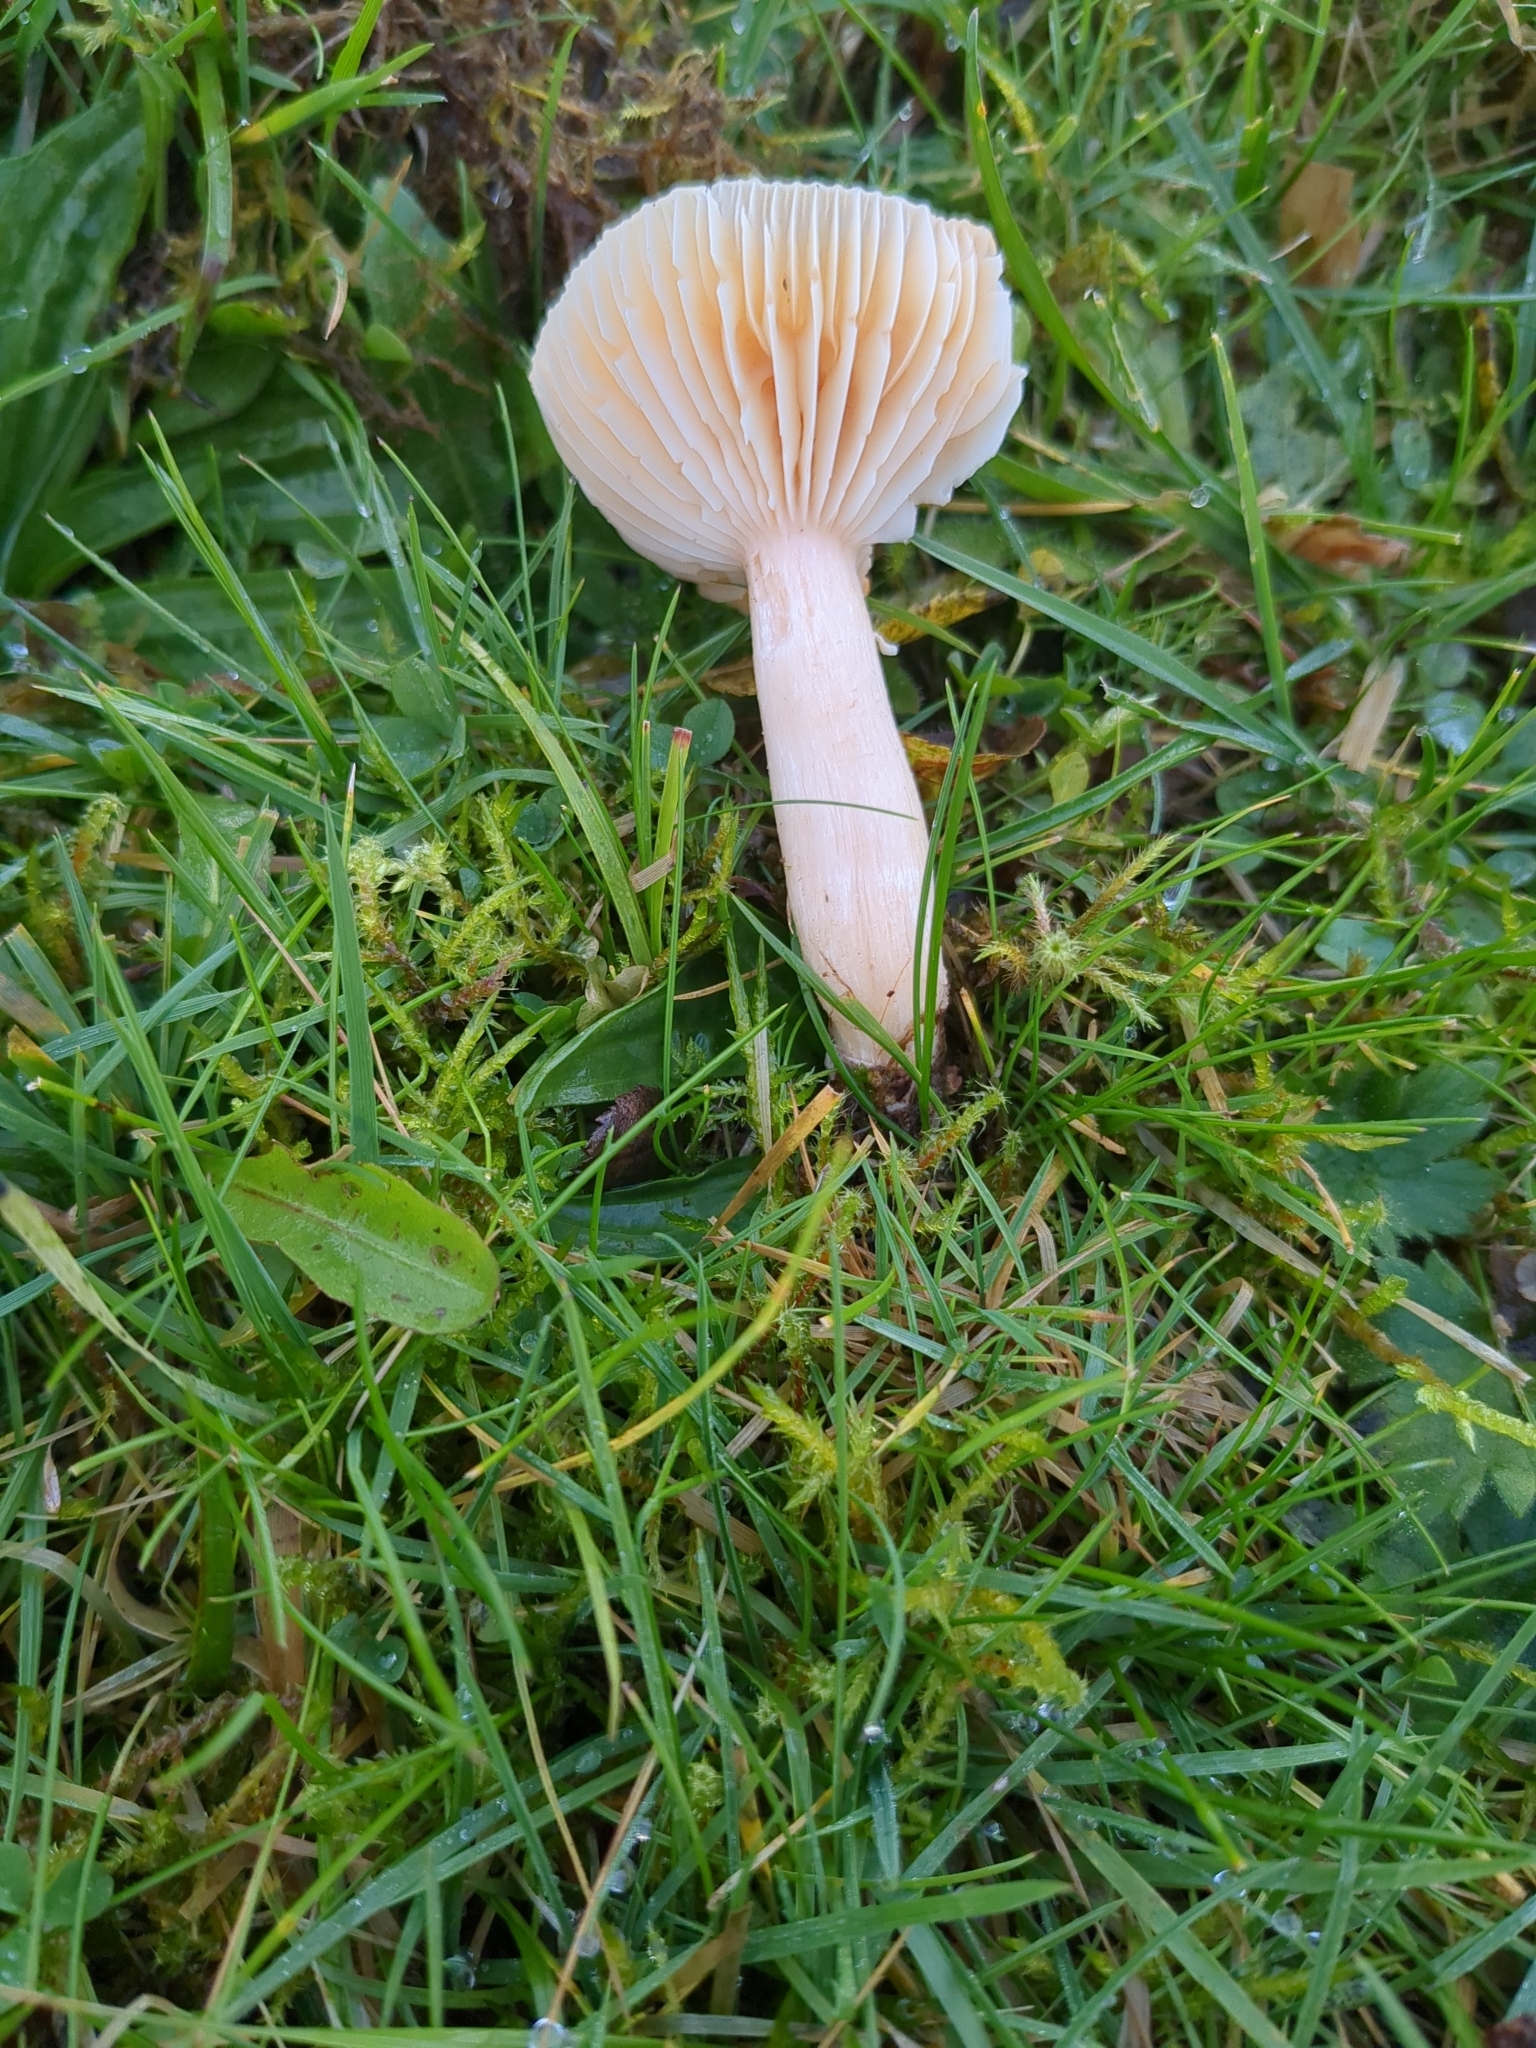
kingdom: Fungi
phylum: Basidiomycota
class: Agaricomycetes
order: Agaricales
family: Hygrophoraceae
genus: Cuphophyllus
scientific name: Cuphophyllus pratensis
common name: Meadow waxcap
